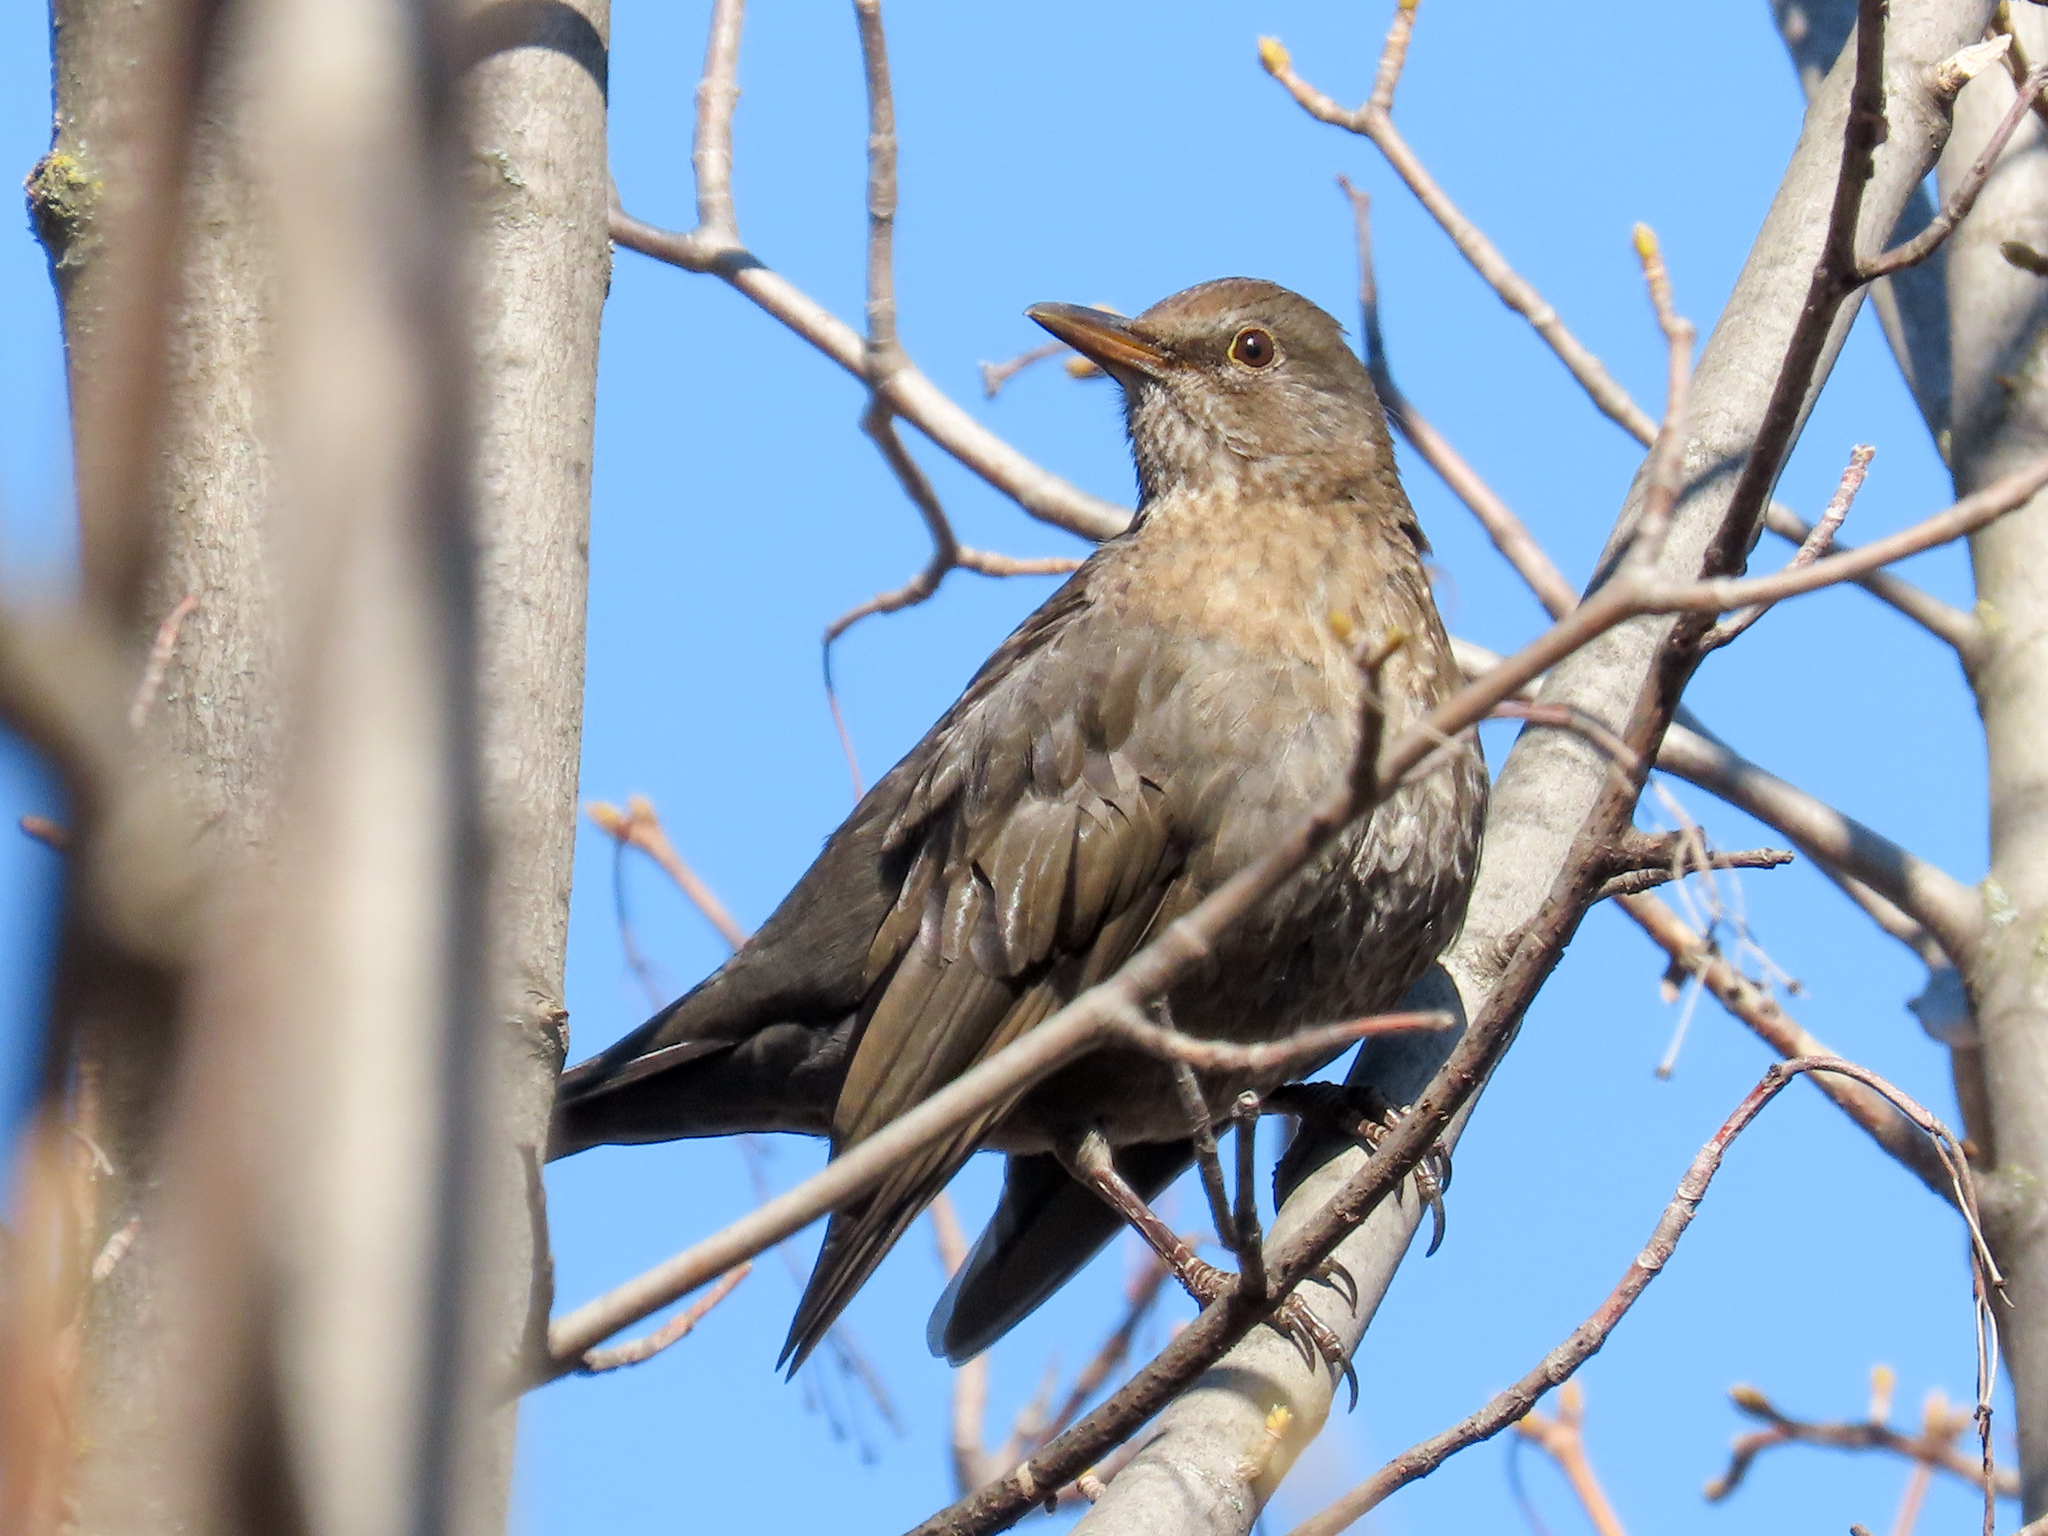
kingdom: Animalia
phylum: Chordata
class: Aves
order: Passeriformes
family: Turdidae
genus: Turdus
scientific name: Turdus merula
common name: Common blackbird
